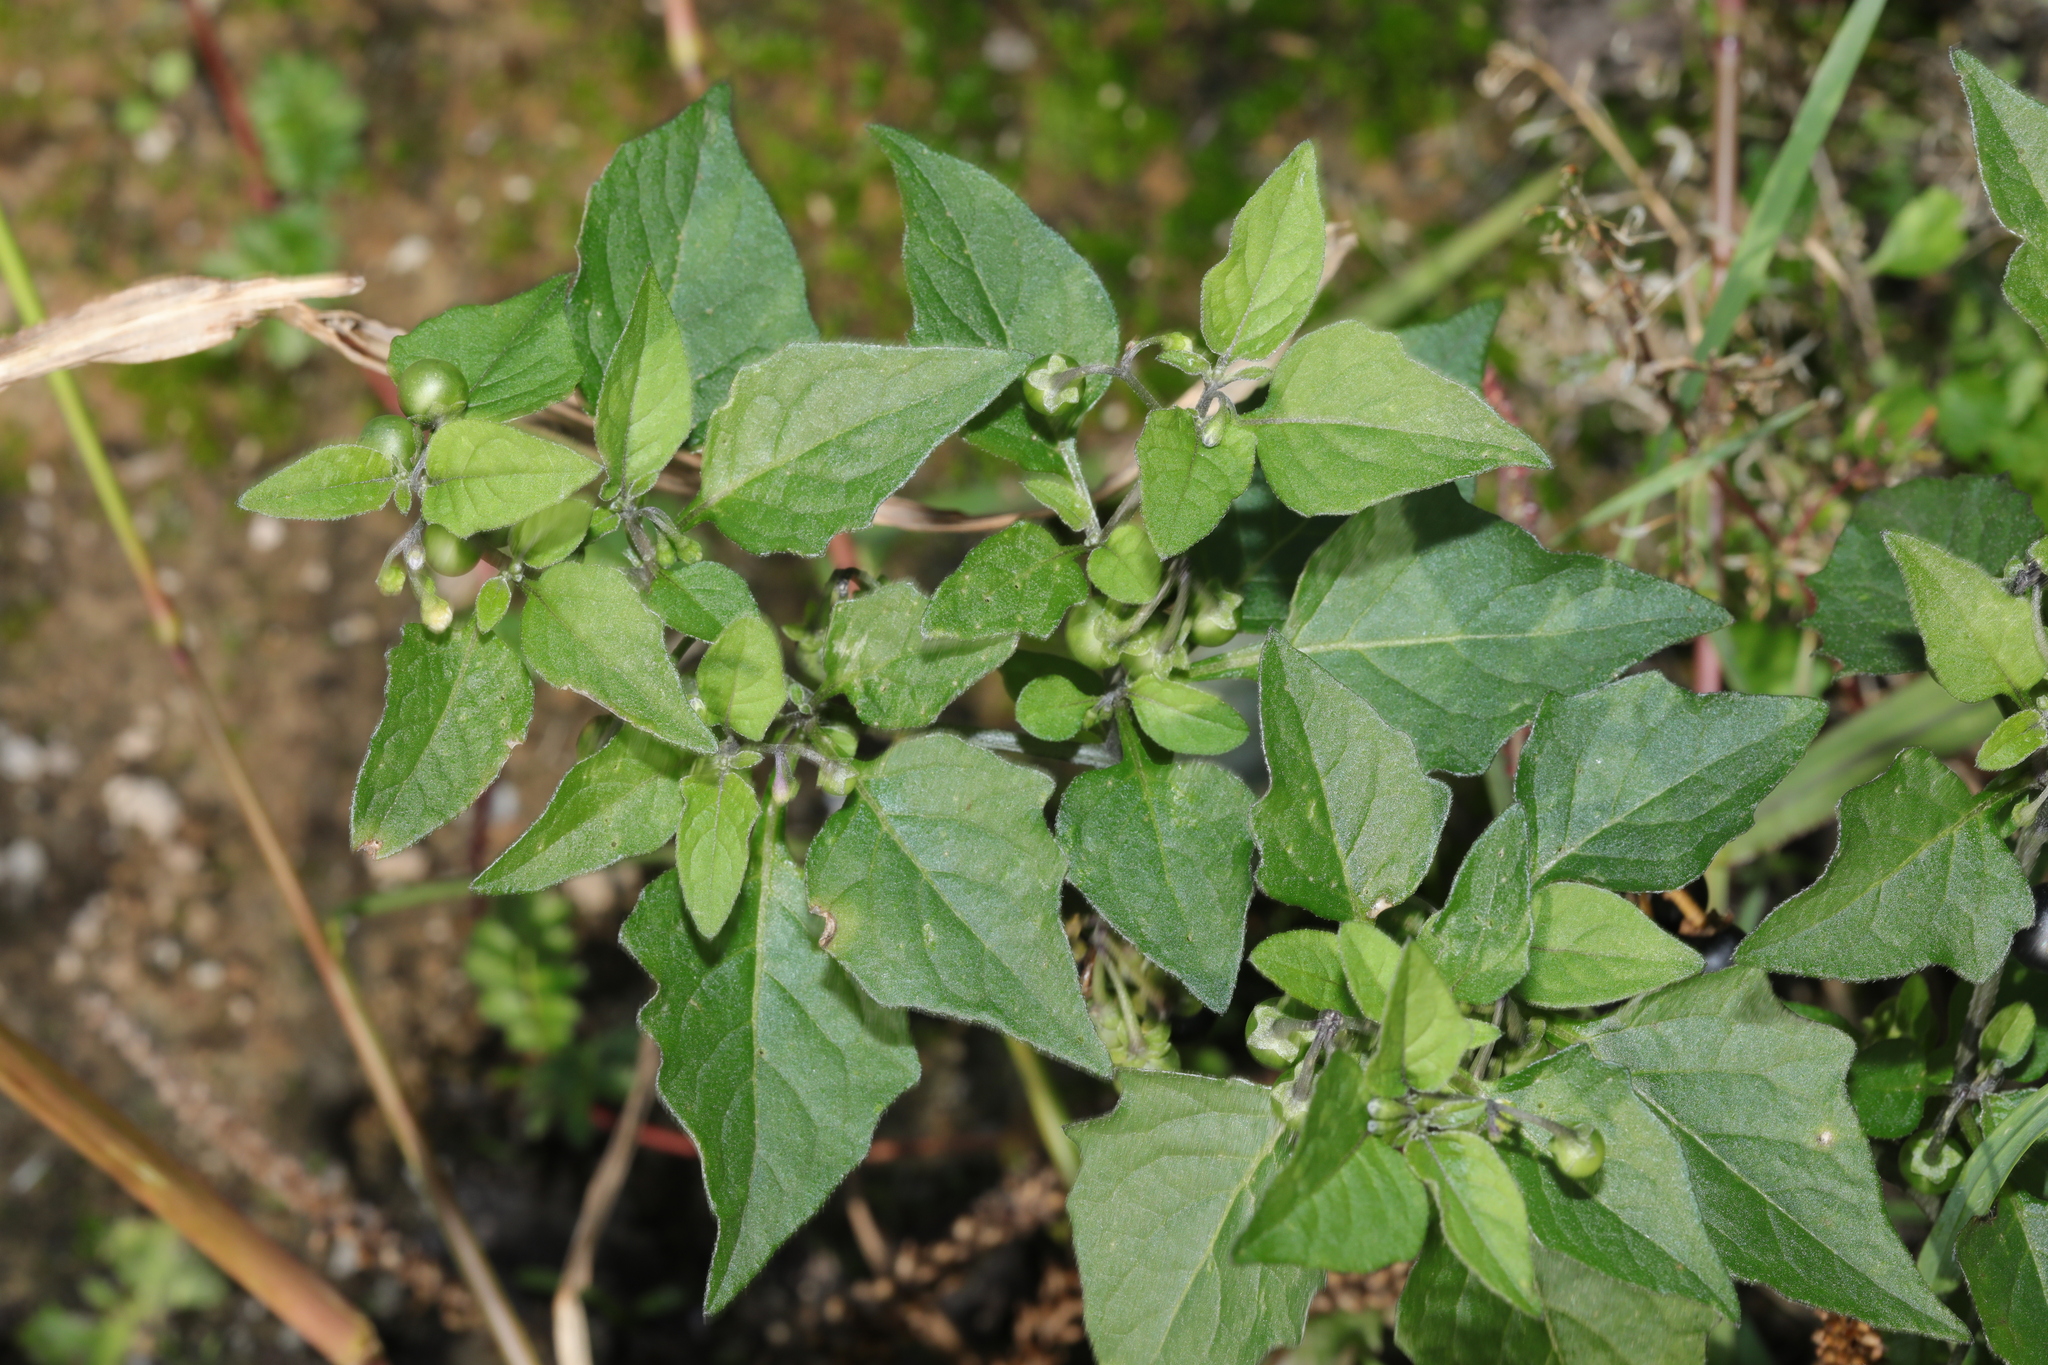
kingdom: Plantae
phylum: Tracheophyta
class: Magnoliopsida
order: Solanales
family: Solanaceae
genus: Solanum
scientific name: Solanum nigrum
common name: Black nightshade
